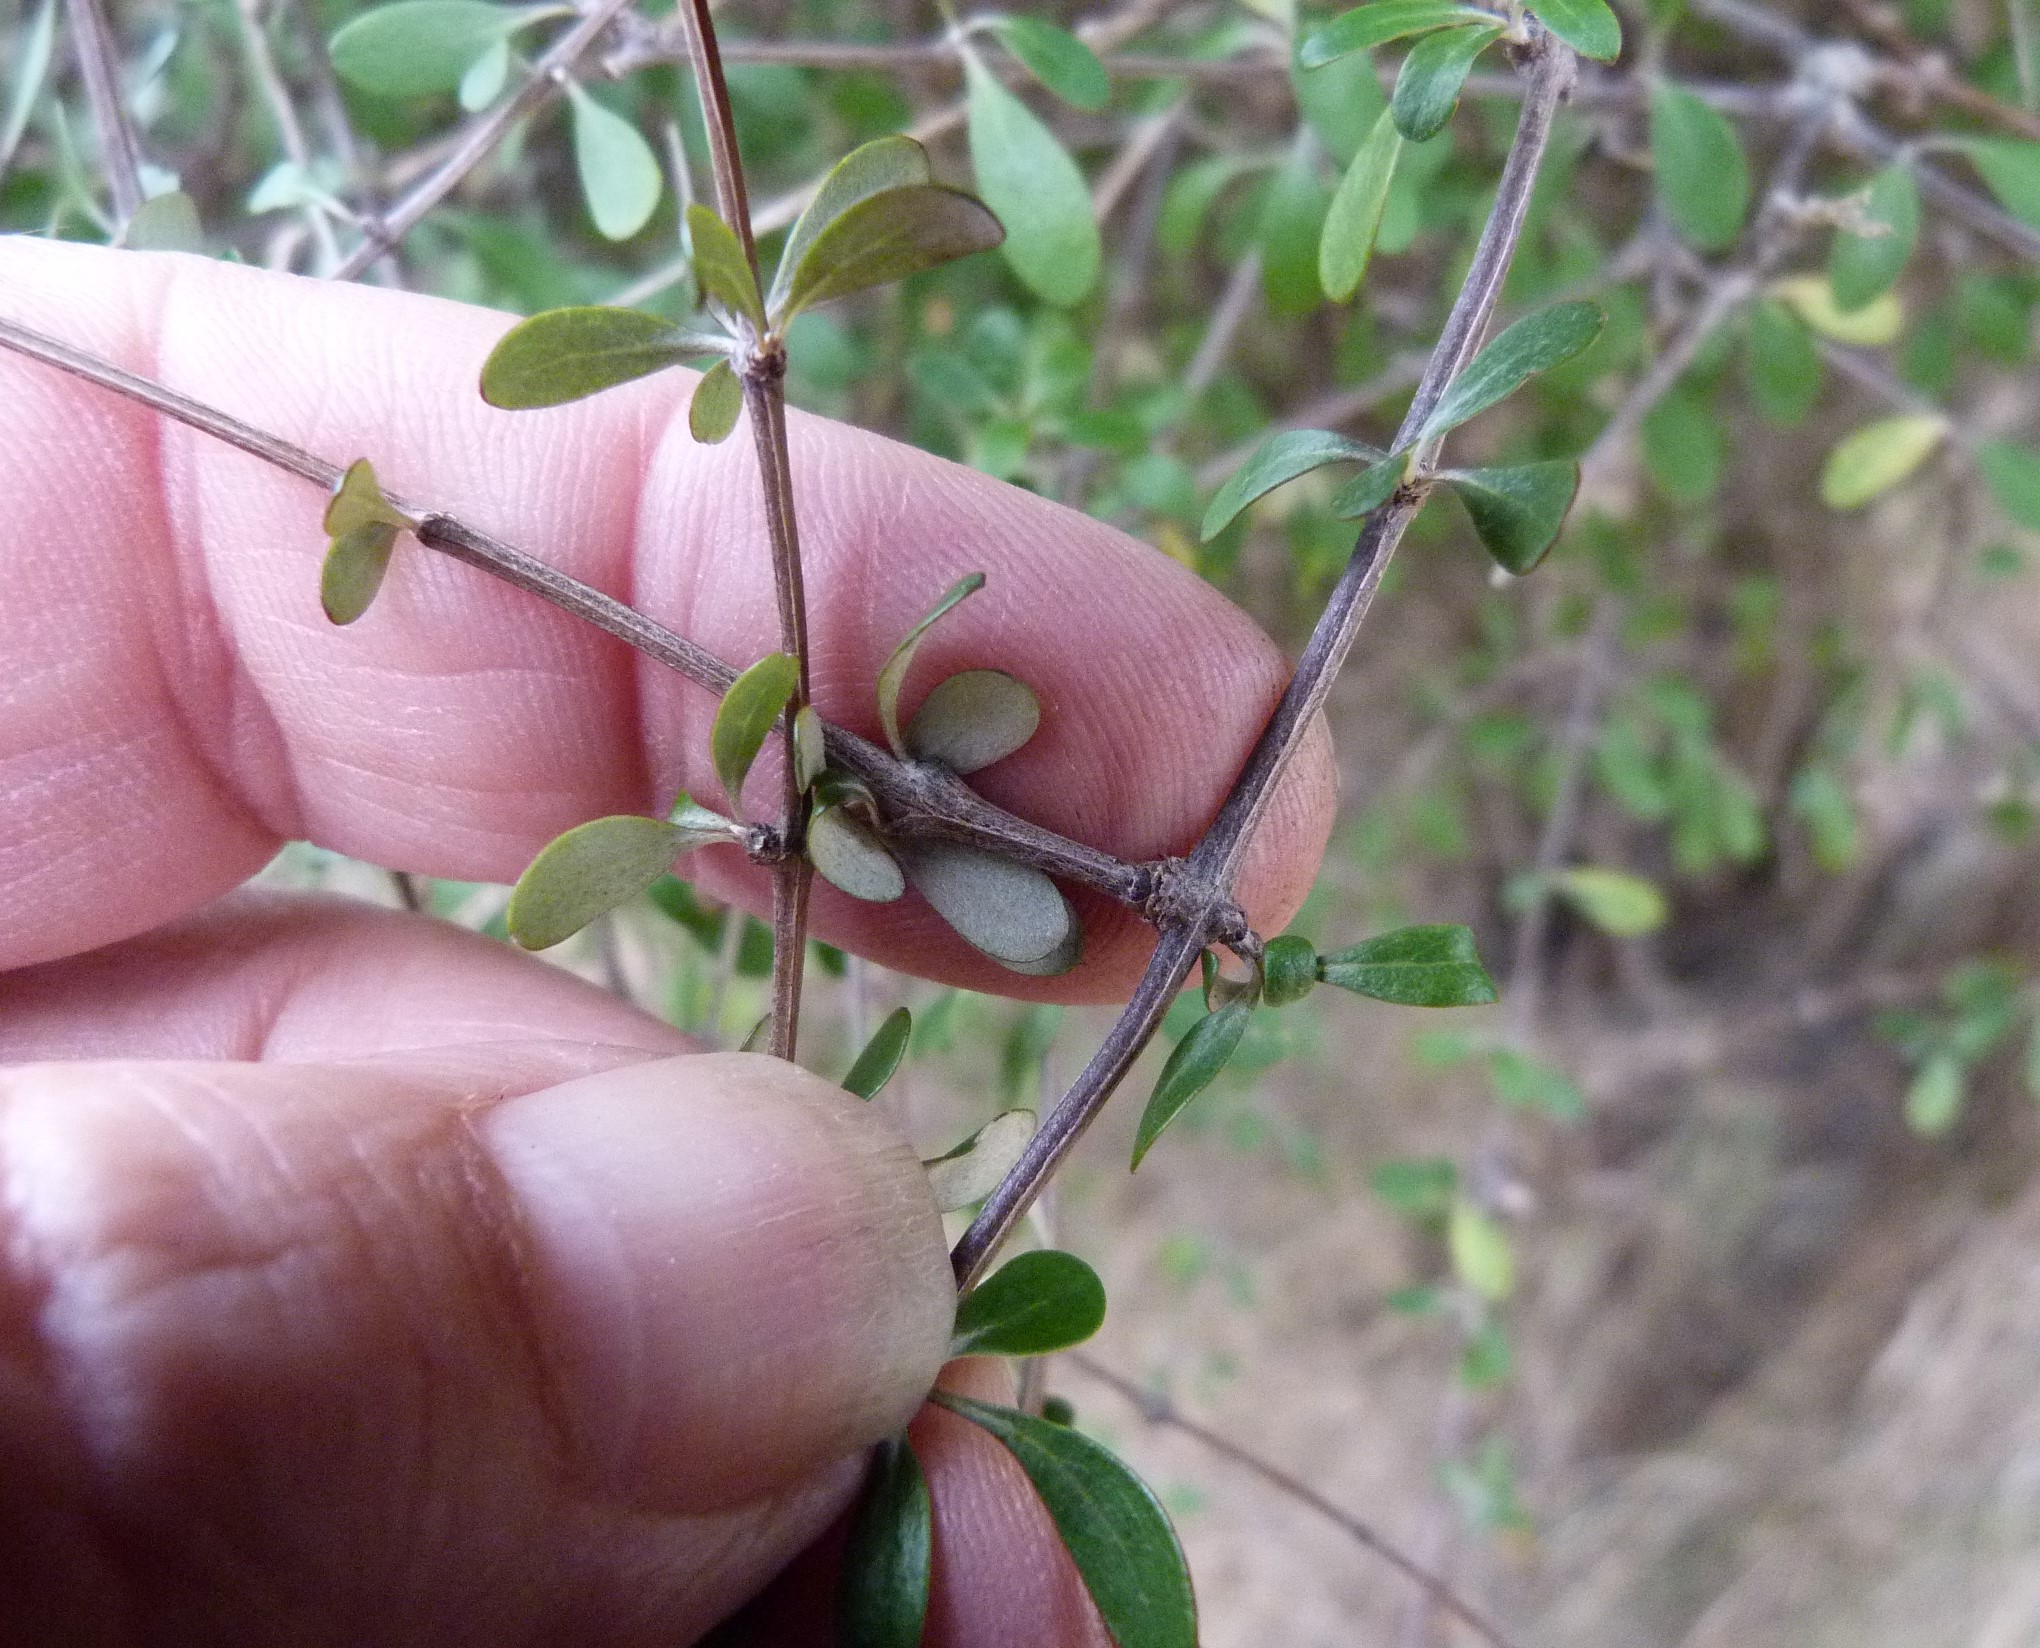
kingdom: Plantae
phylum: Tracheophyta
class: Magnoliopsida
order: Asterales
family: Asteraceae
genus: Olearia
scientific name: Olearia fimbriata
